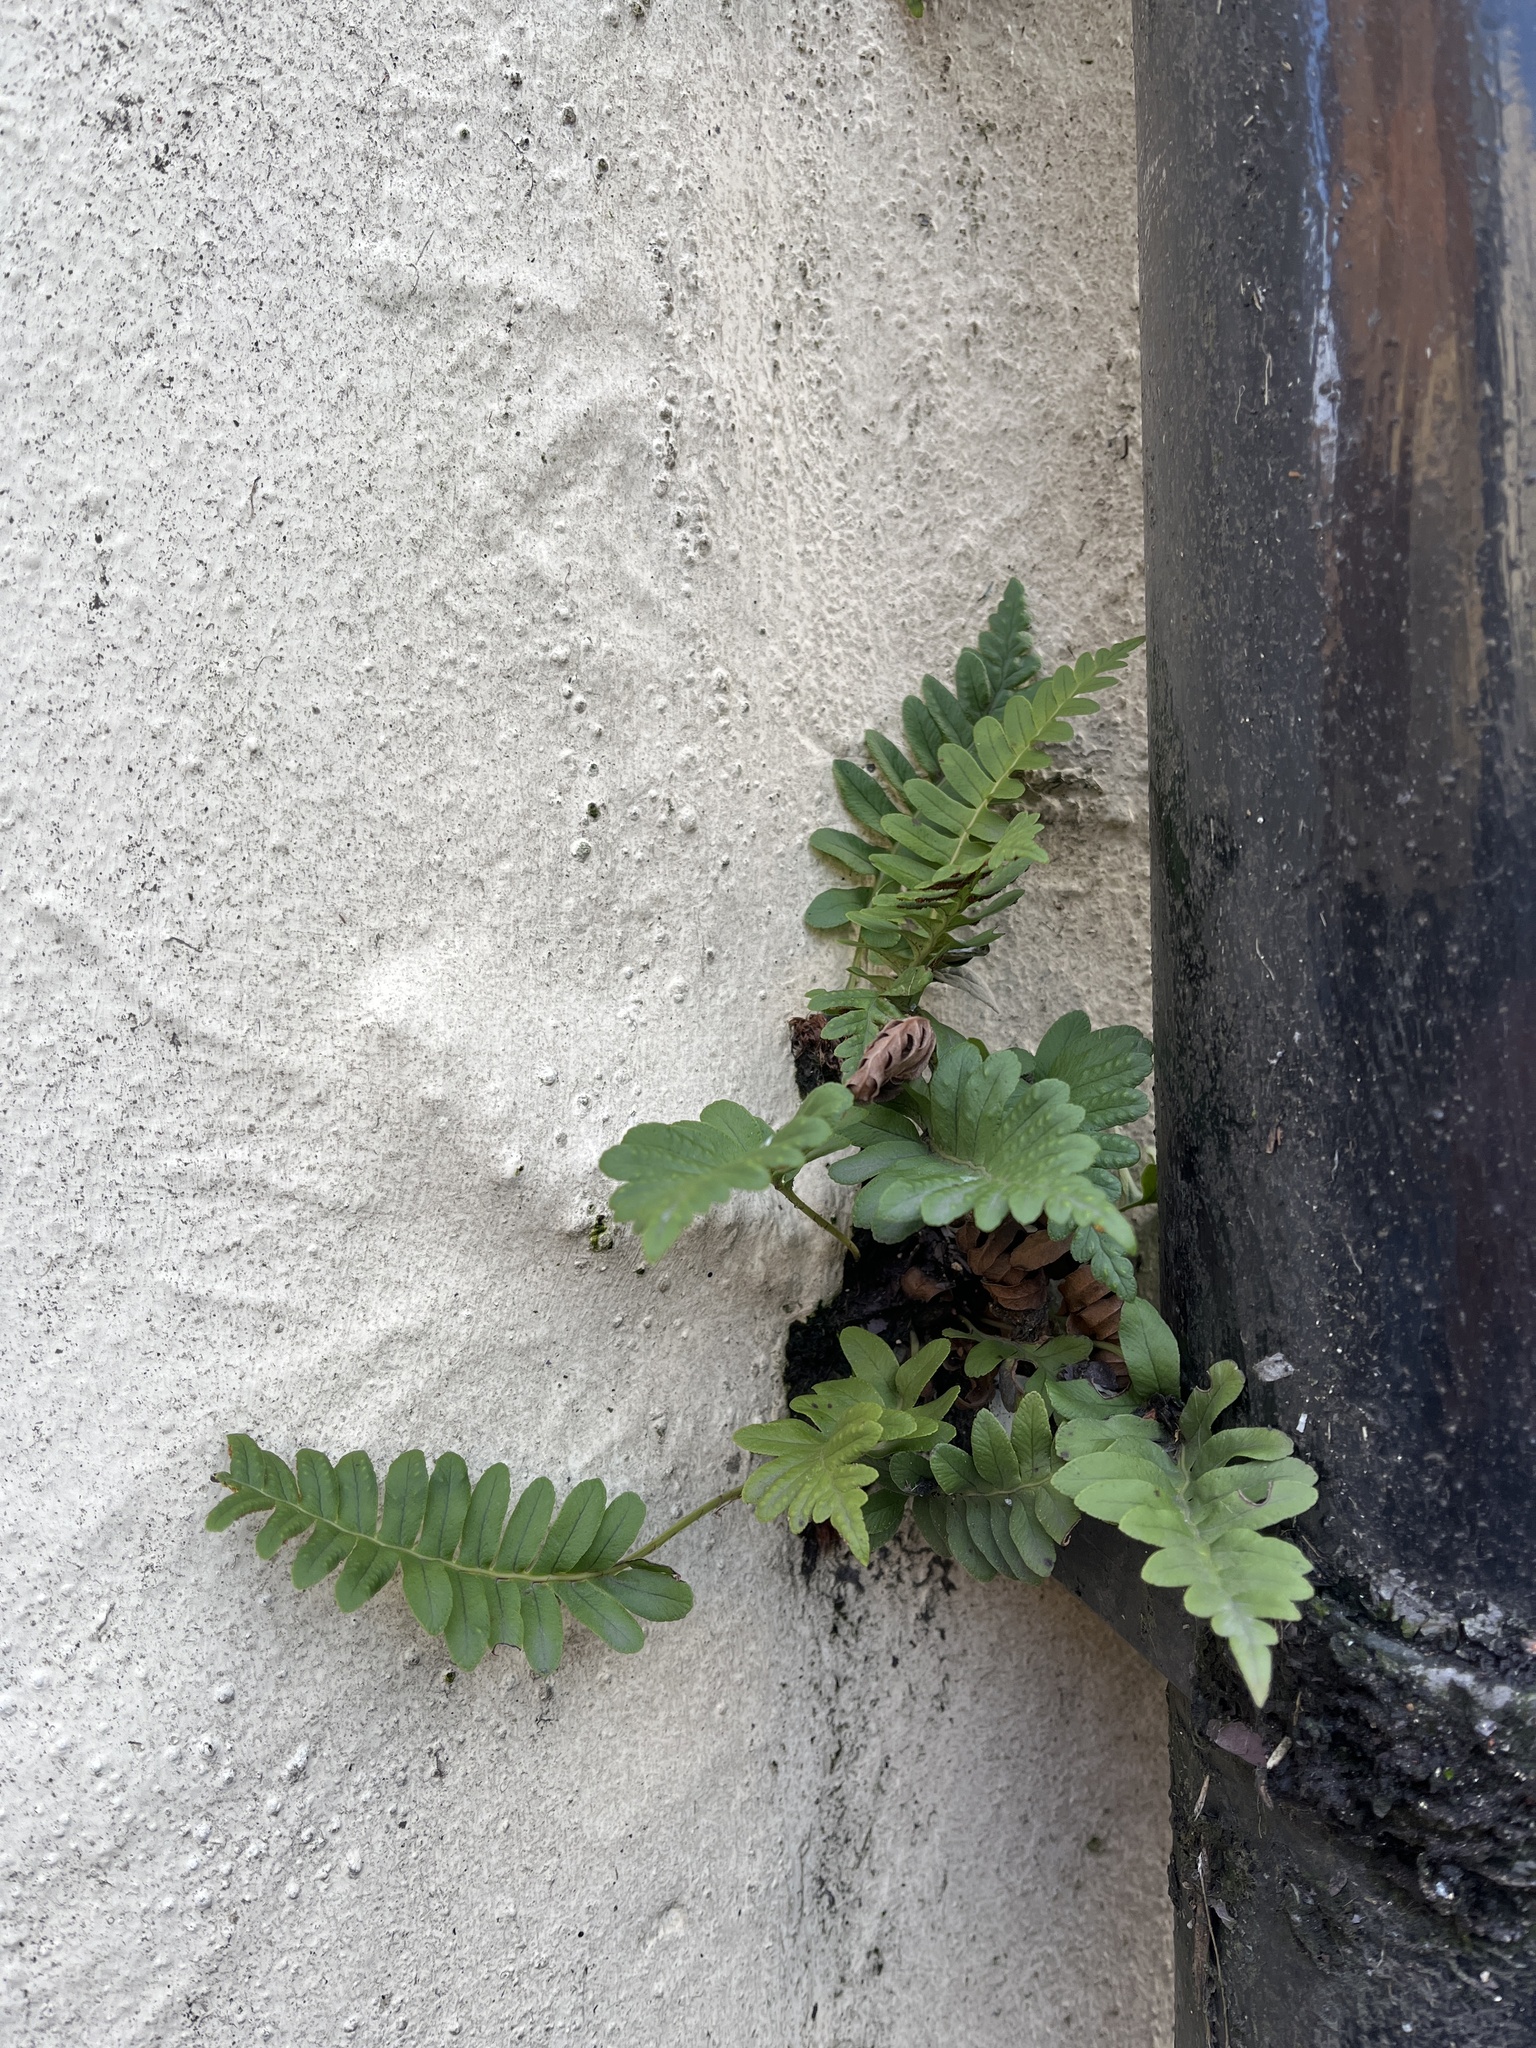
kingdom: Plantae
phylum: Tracheophyta
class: Polypodiopsida
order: Polypodiales
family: Polypodiaceae
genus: Polypodium
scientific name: Polypodium
